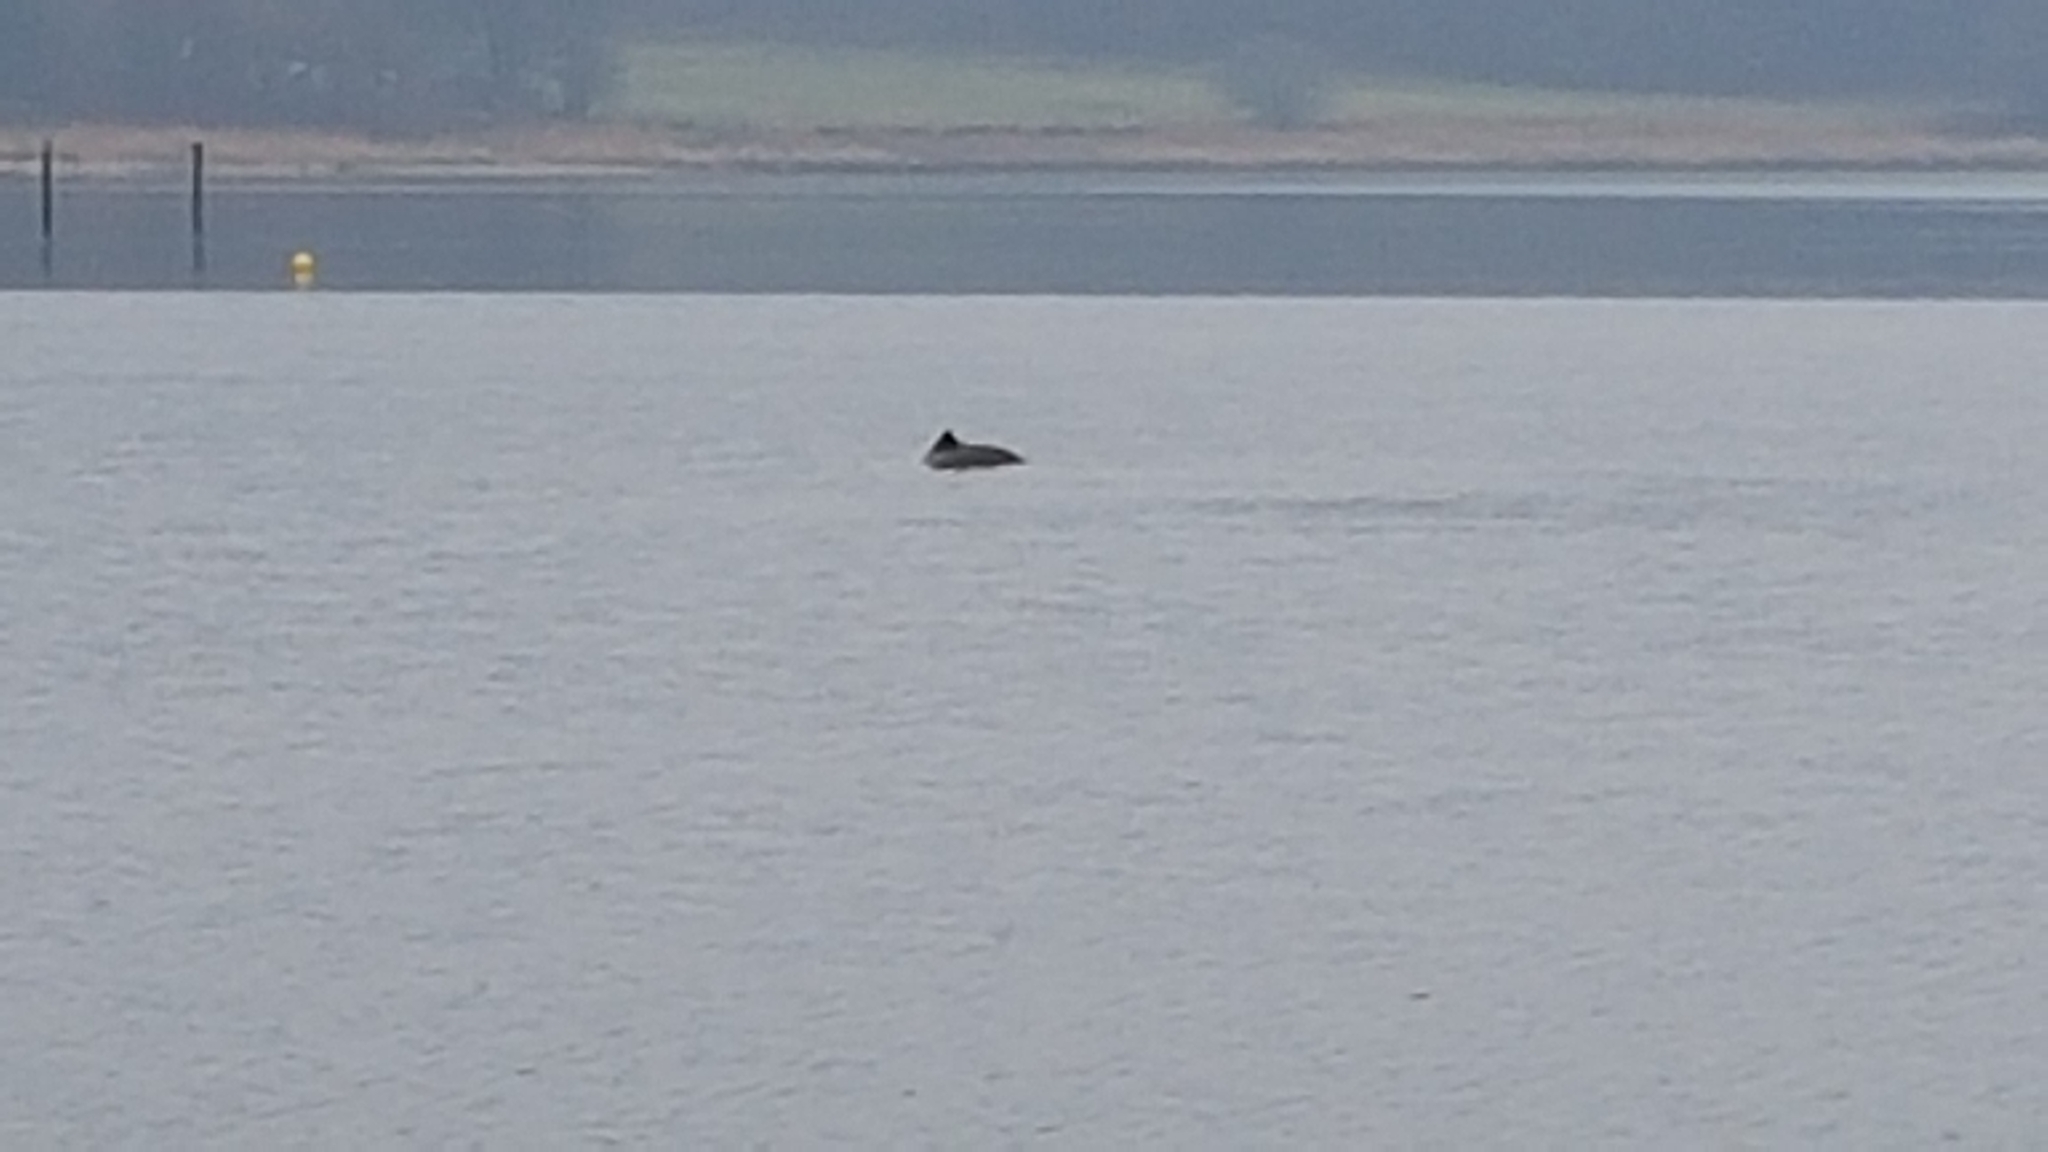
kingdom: Animalia
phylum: Chordata
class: Mammalia
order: Cetacea
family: Phocoenidae
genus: Phocoena
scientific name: Phocoena phocoena
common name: Harbor porpoise
